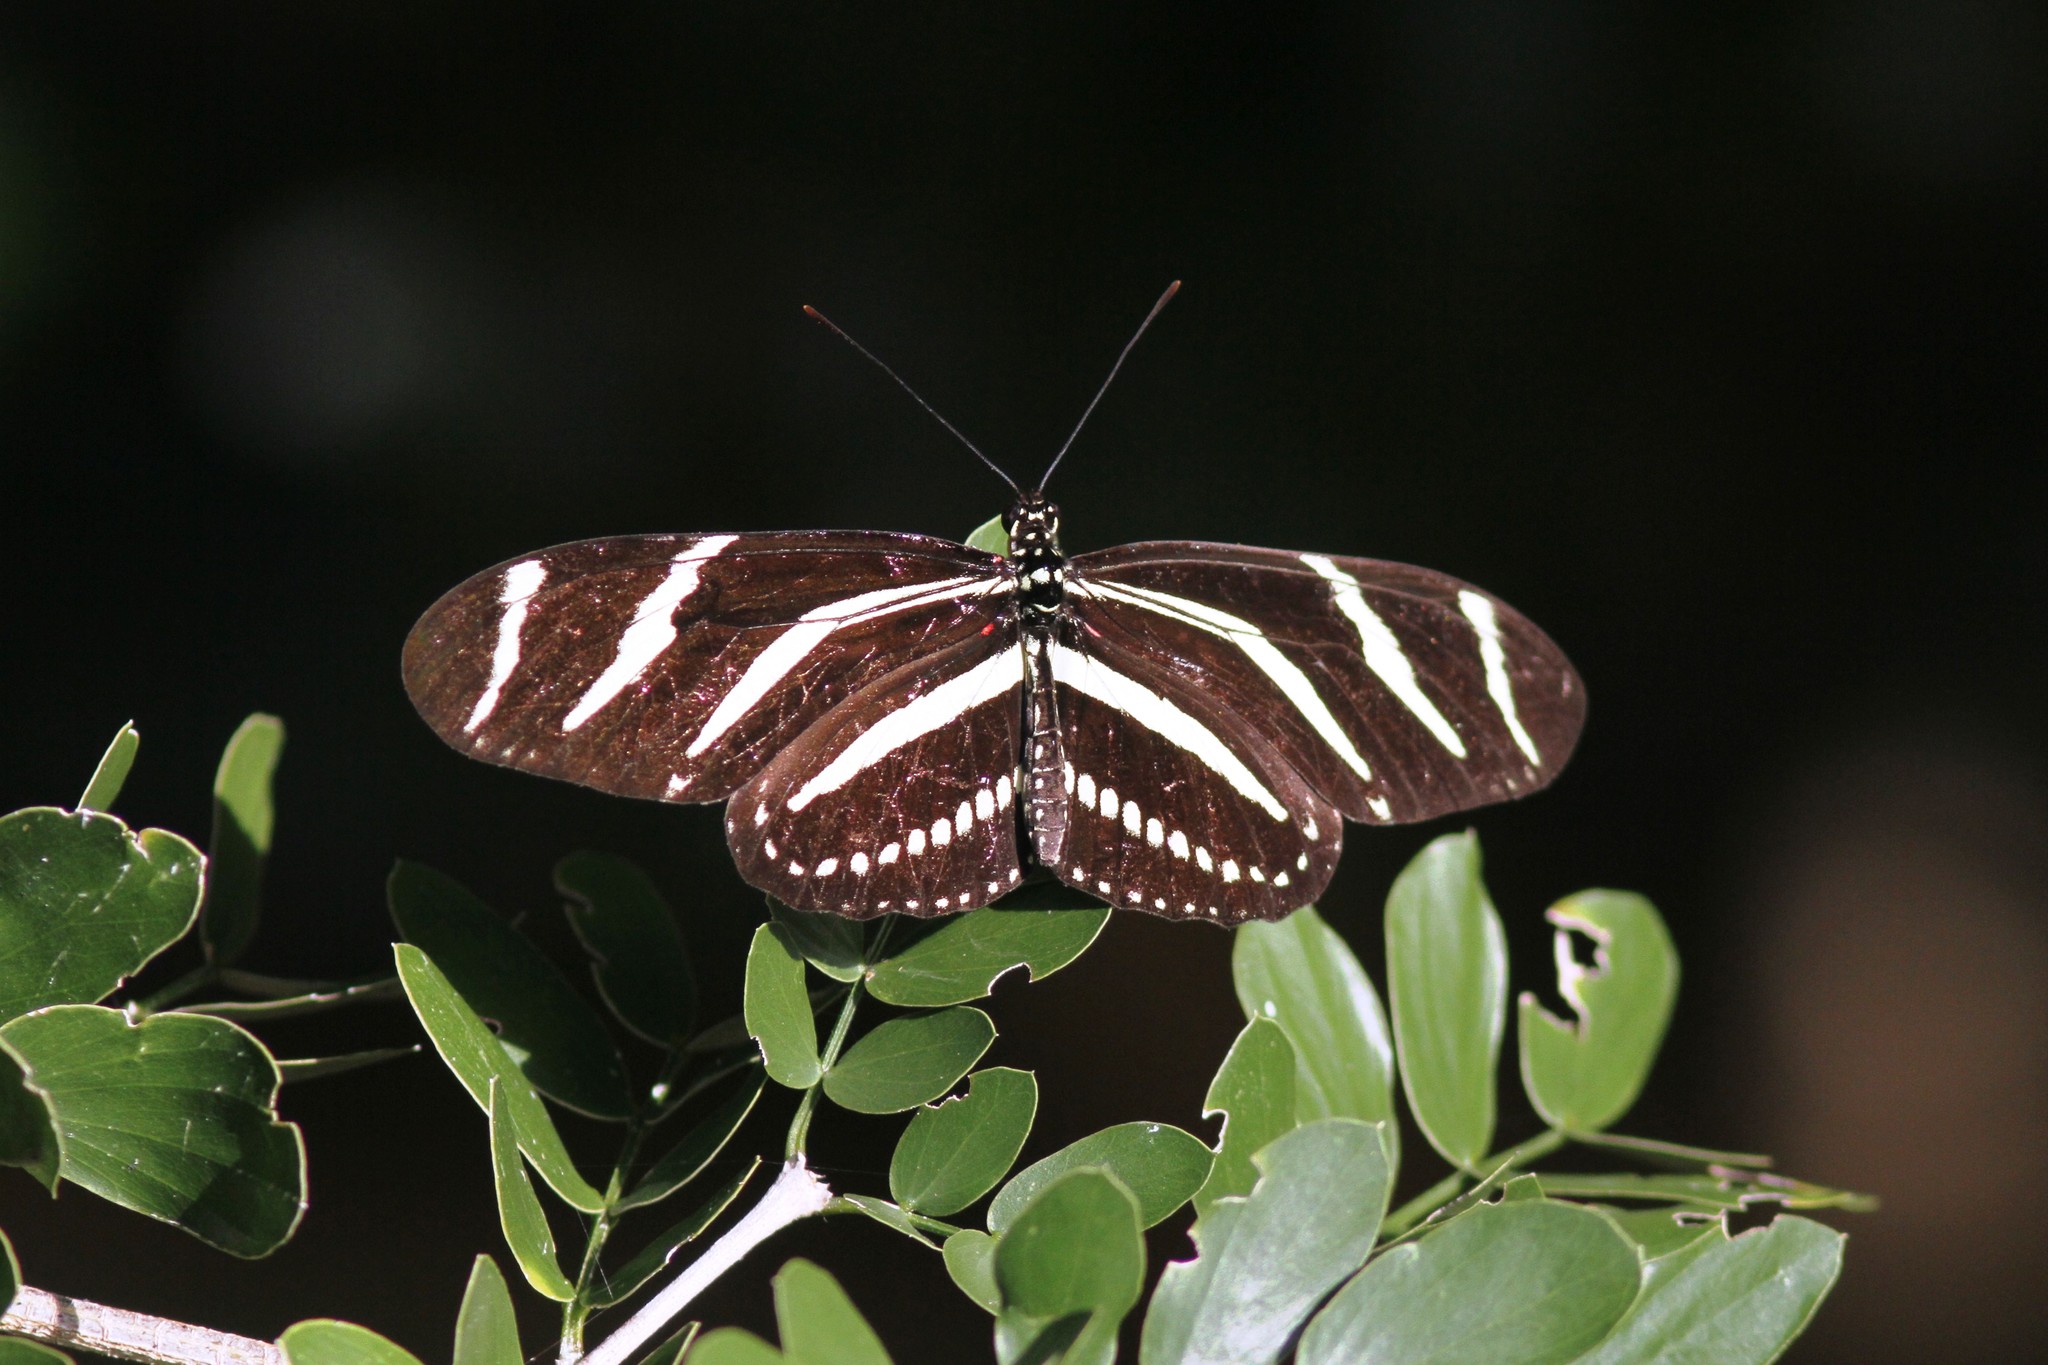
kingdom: Animalia
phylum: Arthropoda
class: Insecta
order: Lepidoptera
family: Nymphalidae
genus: Heliconius
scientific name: Heliconius charithonia
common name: Zebra long wing
